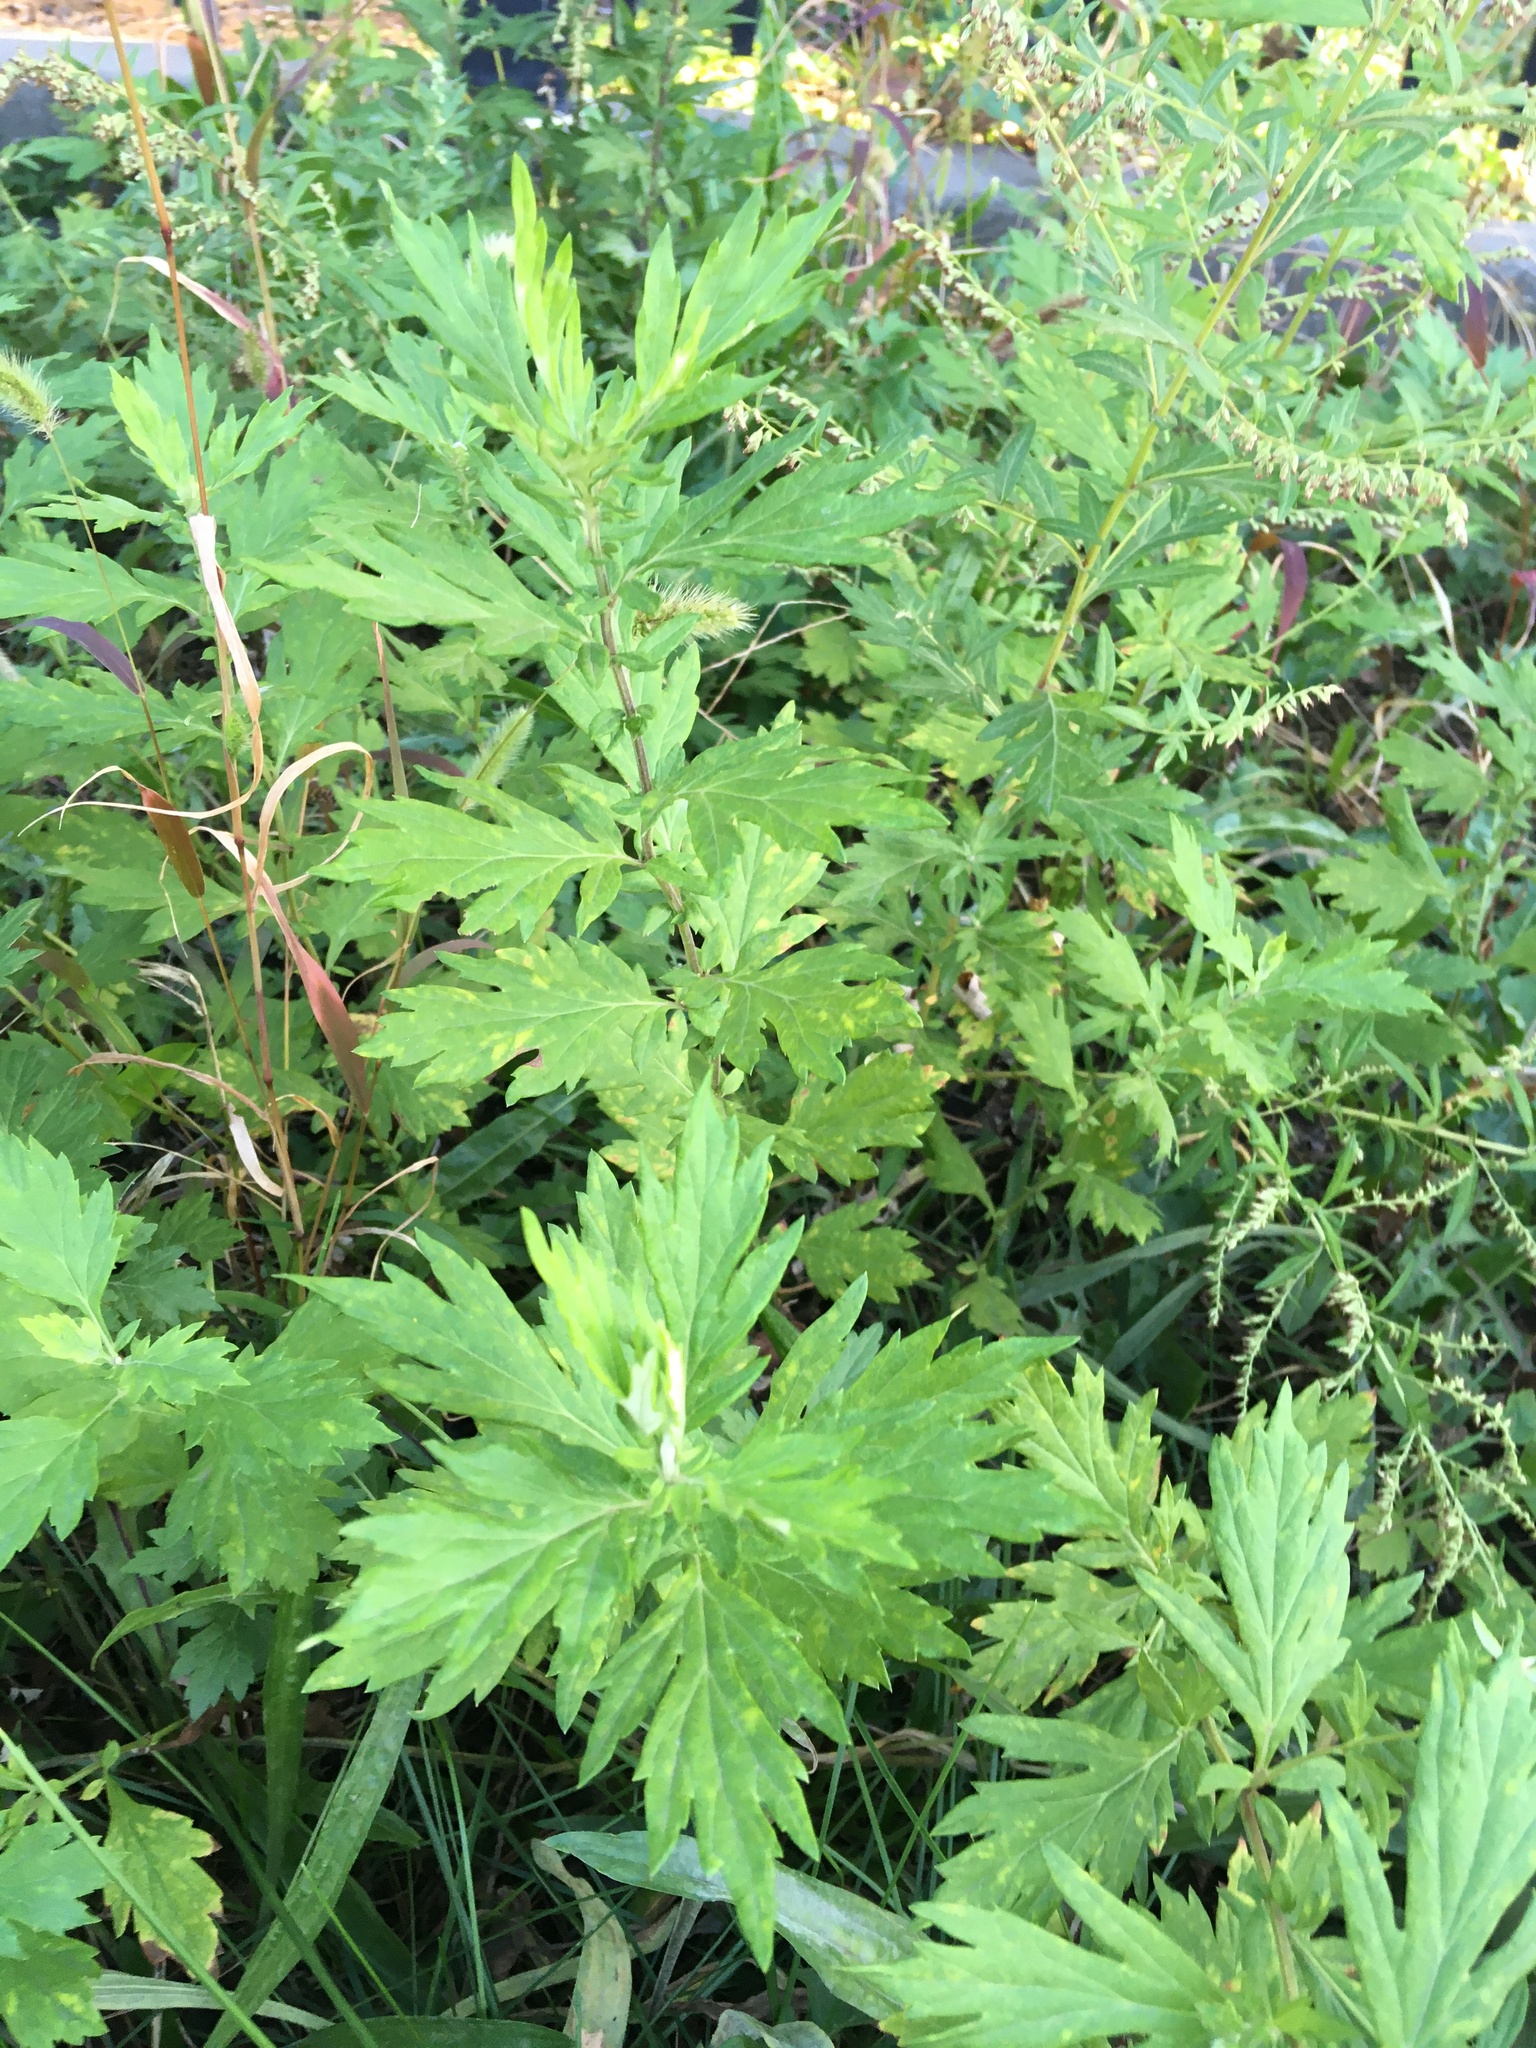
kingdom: Plantae
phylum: Tracheophyta
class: Magnoliopsida
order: Asterales
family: Asteraceae
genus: Artemisia
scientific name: Artemisia vulgaris
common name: Mugwort
